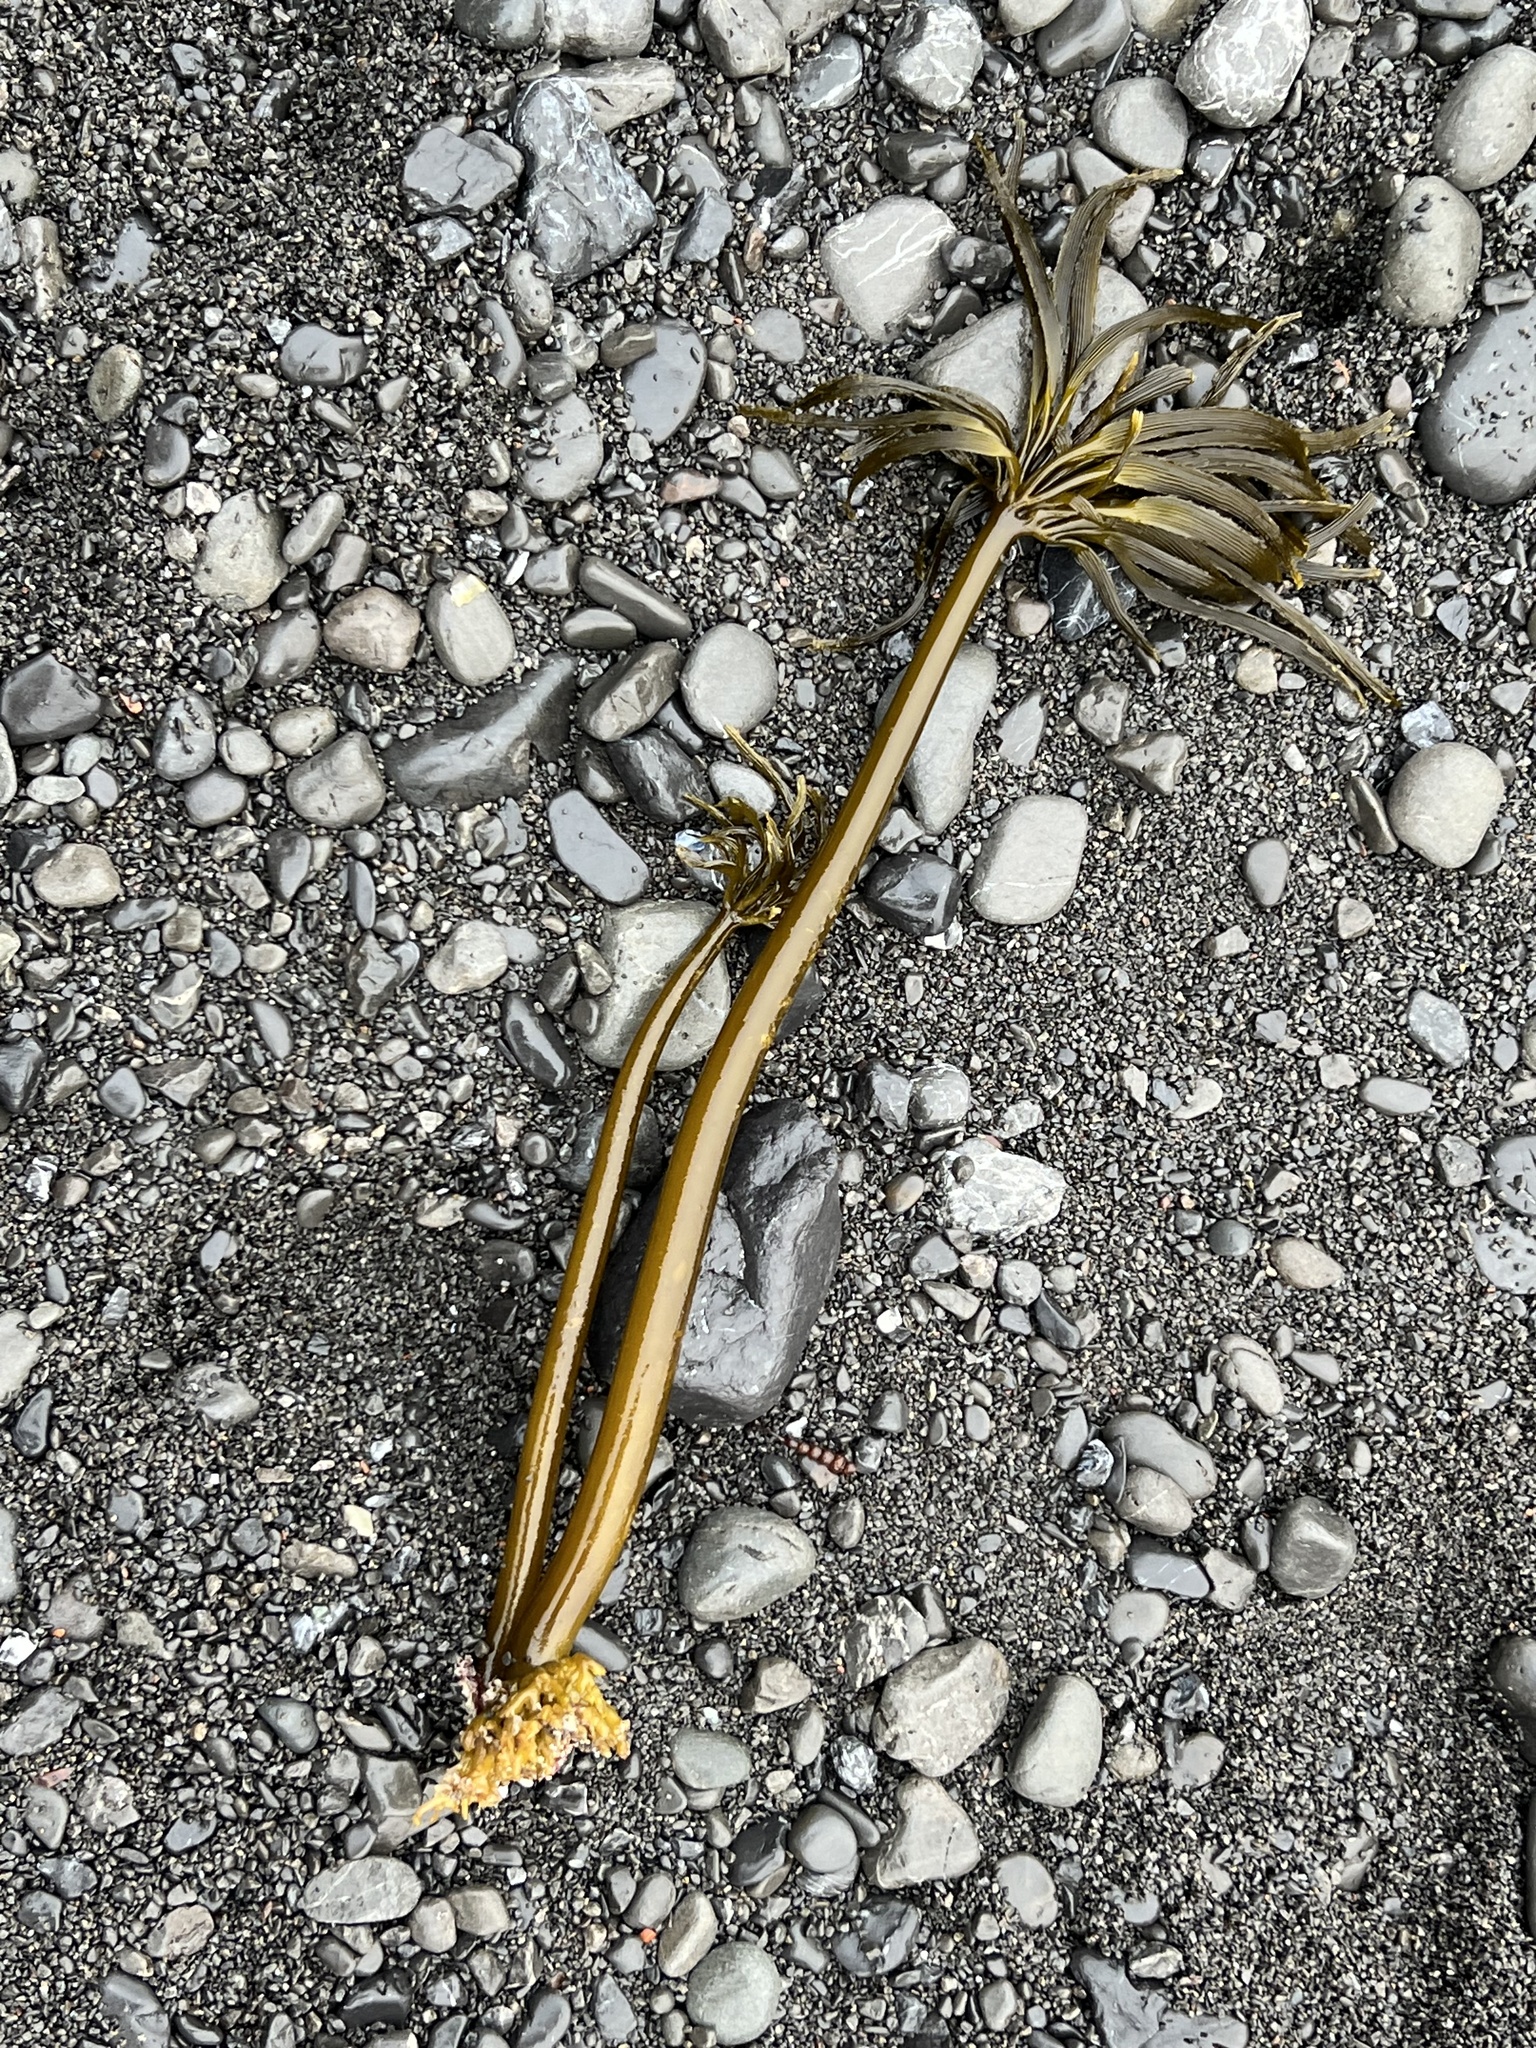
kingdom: Chromista
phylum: Ochrophyta
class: Phaeophyceae
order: Laminariales
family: Laminariaceae
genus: Postelsia
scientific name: Postelsia palmiformis
